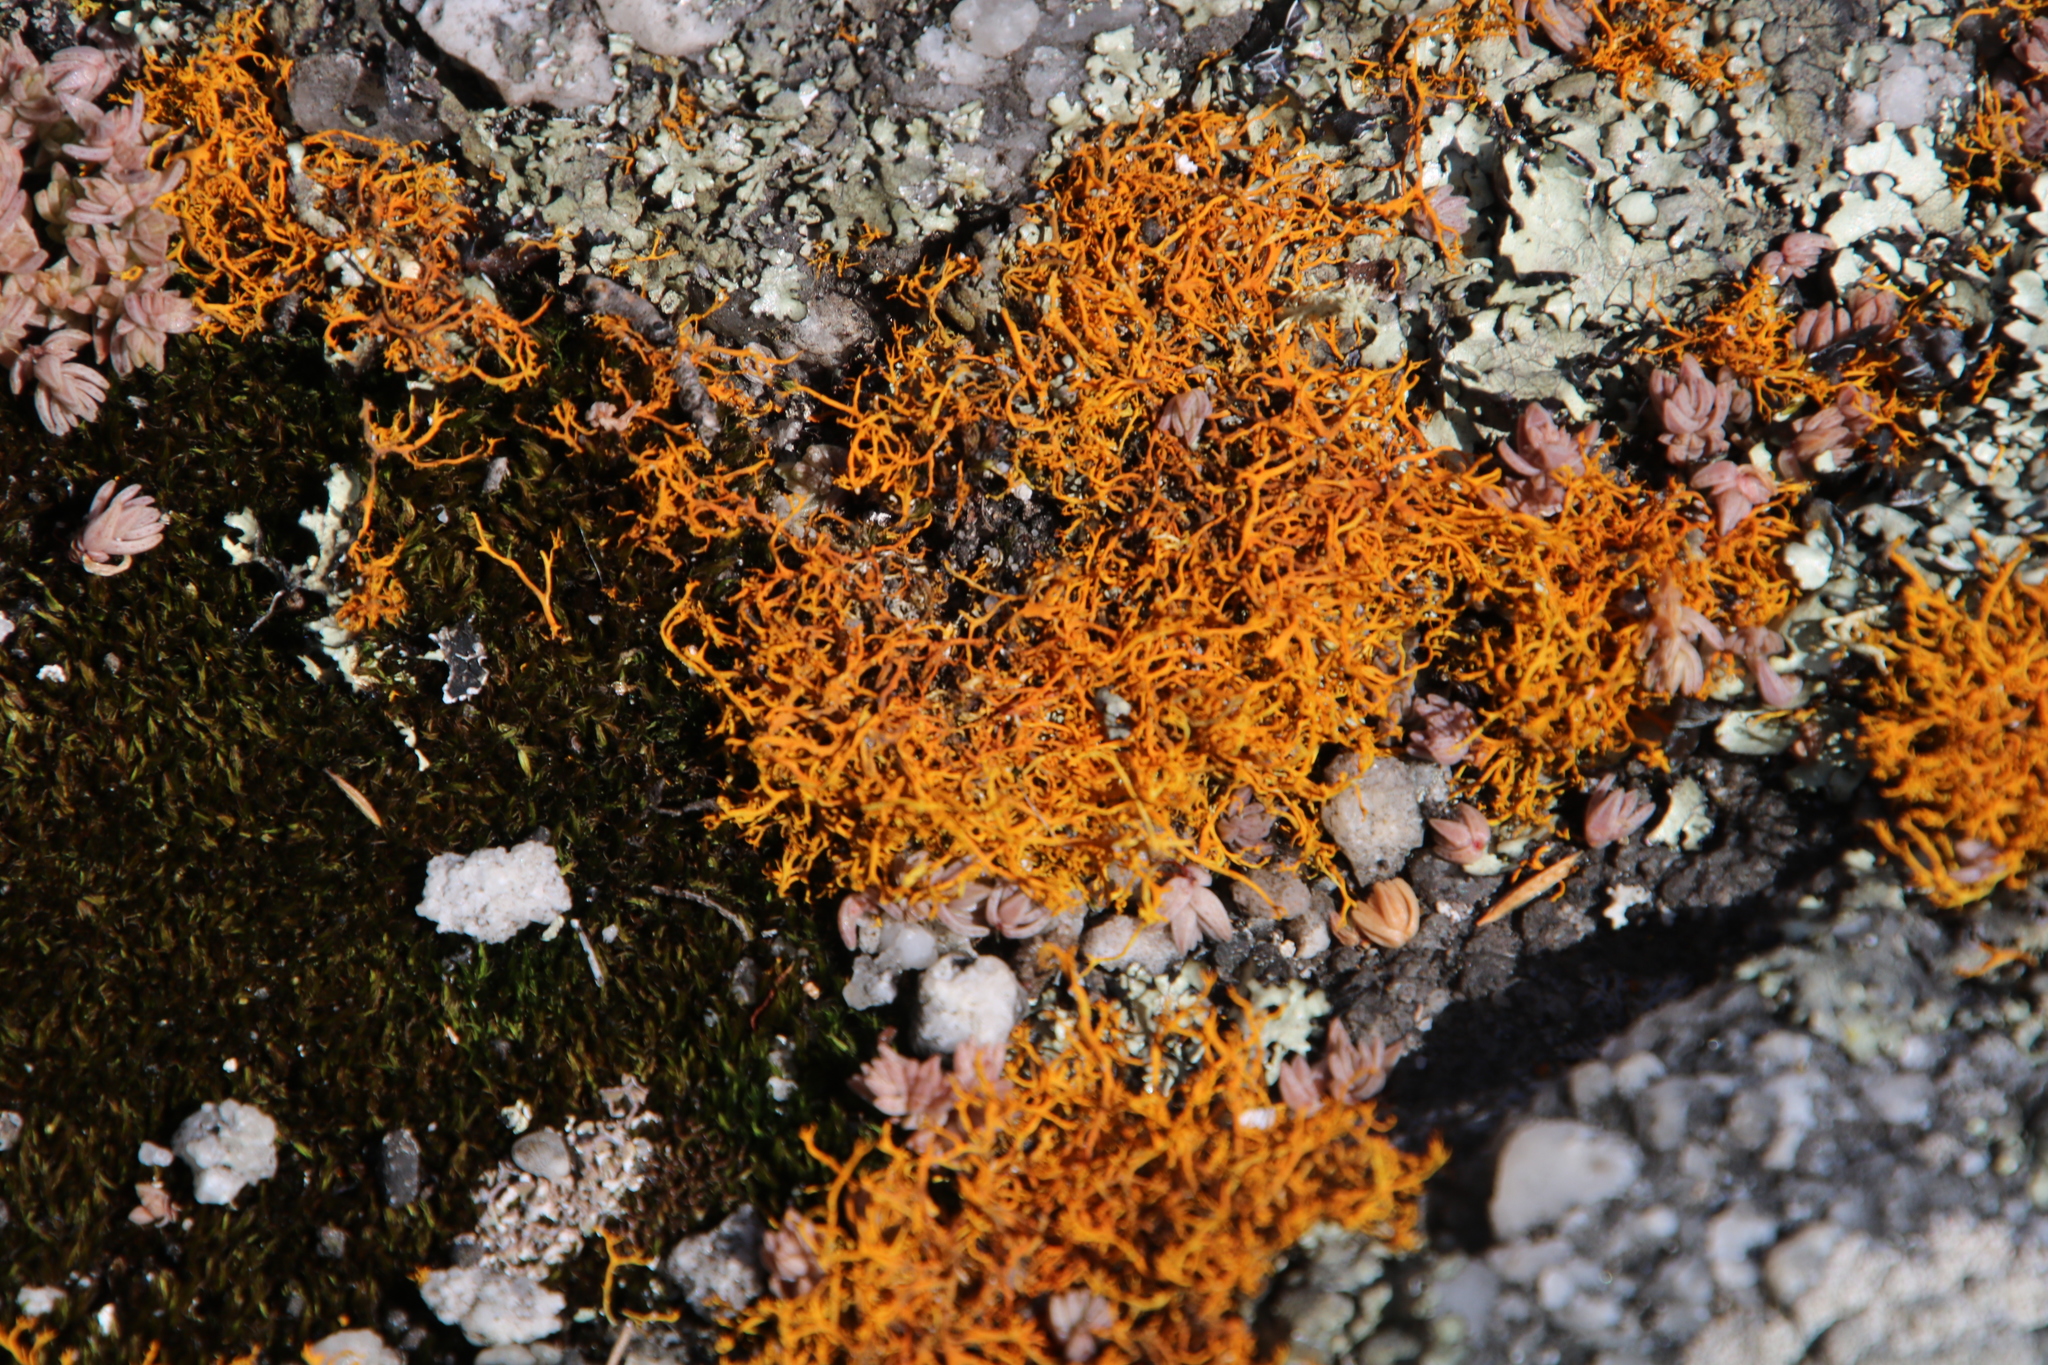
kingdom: Fungi
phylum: Ascomycota
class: Lecanoromycetes
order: Teloschistales
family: Teloschistaceae
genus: Teloschistes
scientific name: Teloschistes flavicans
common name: Golden hair-lichen
